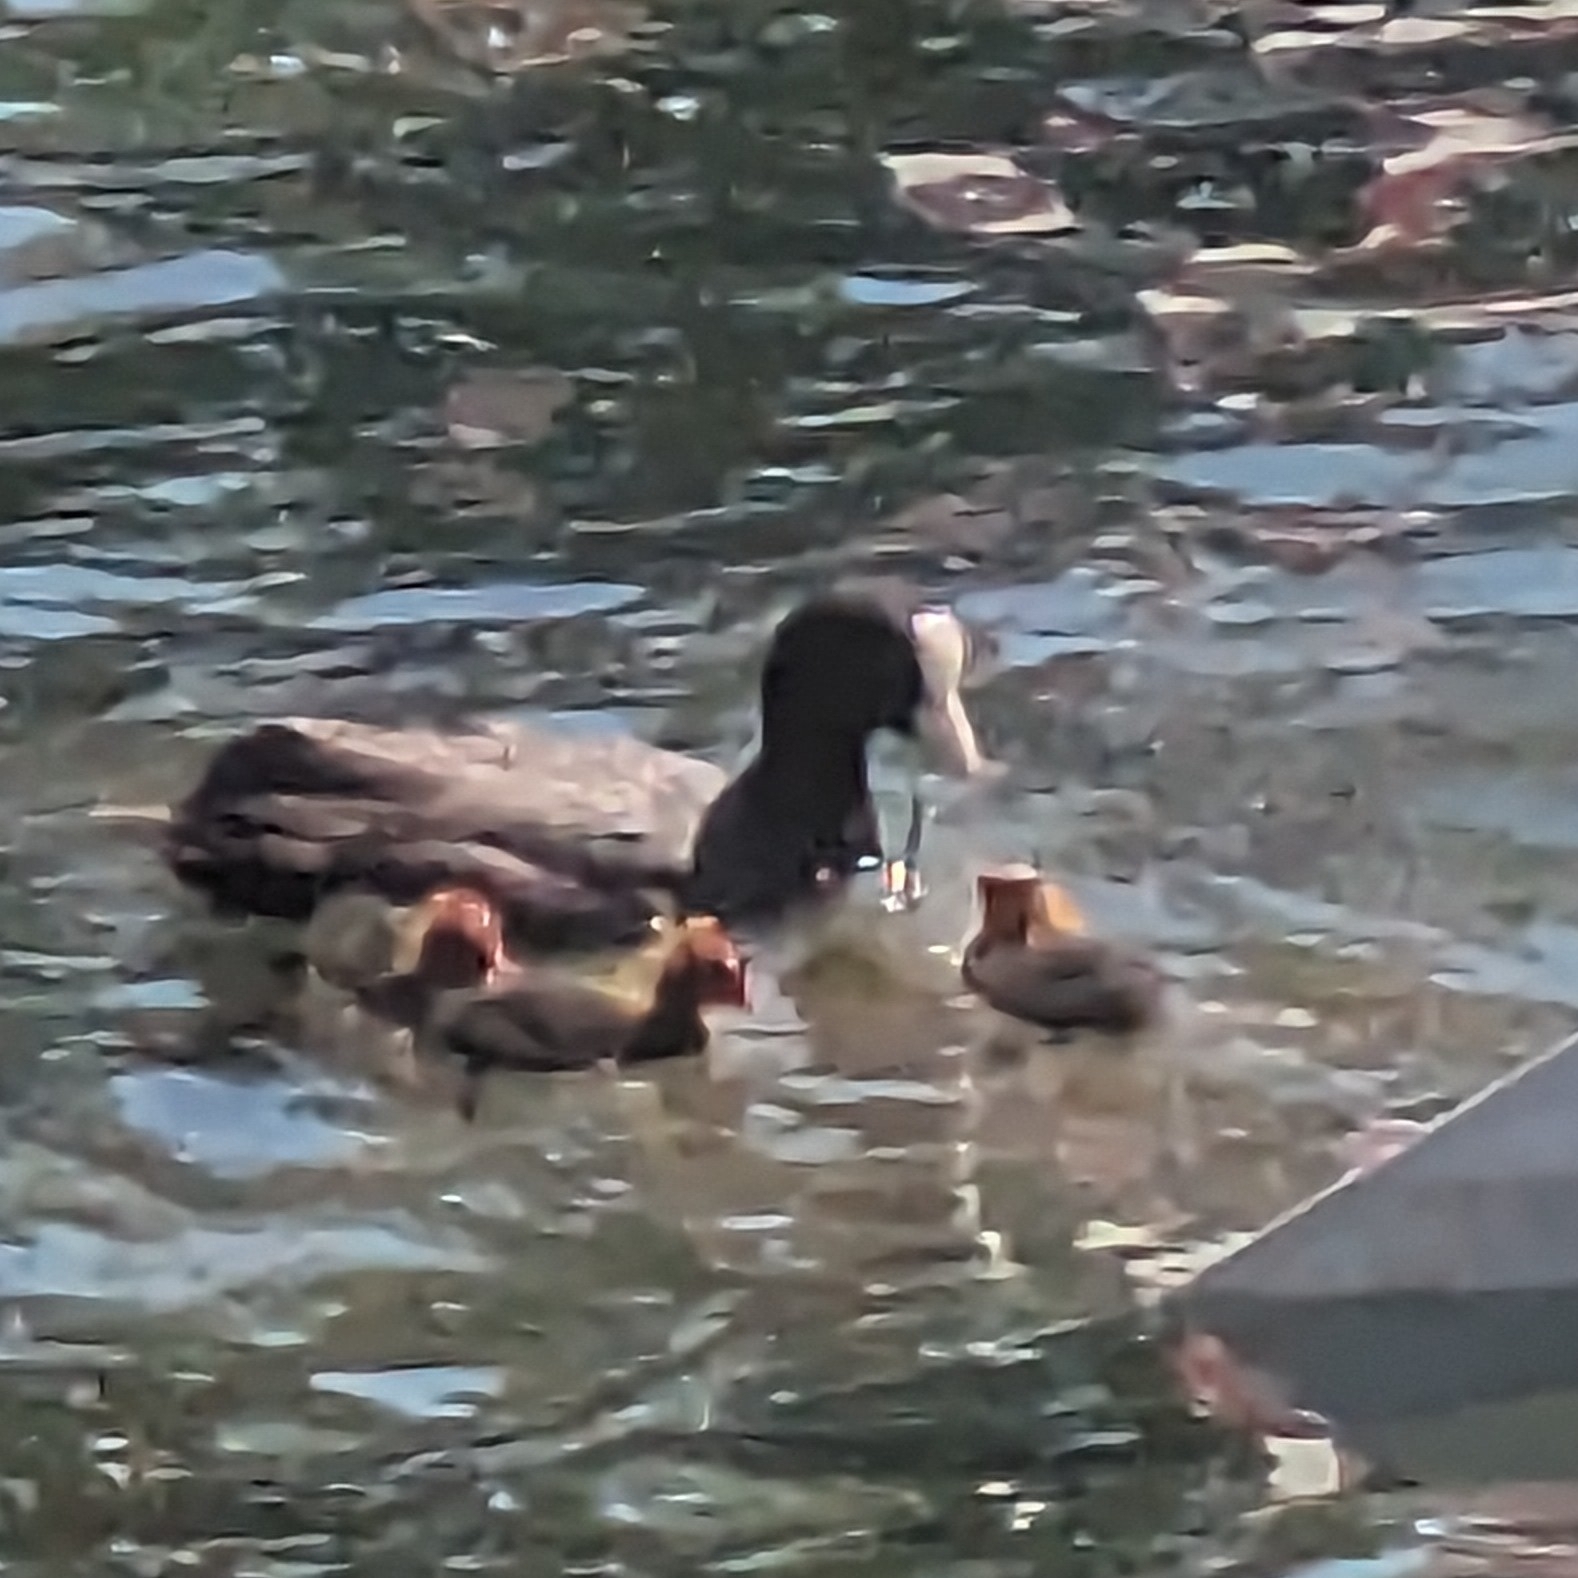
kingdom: Animalia
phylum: Chordata
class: Aves
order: Gruiformes
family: Rallidae
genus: Fulica
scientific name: Fulica atra
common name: Eurasian coot
